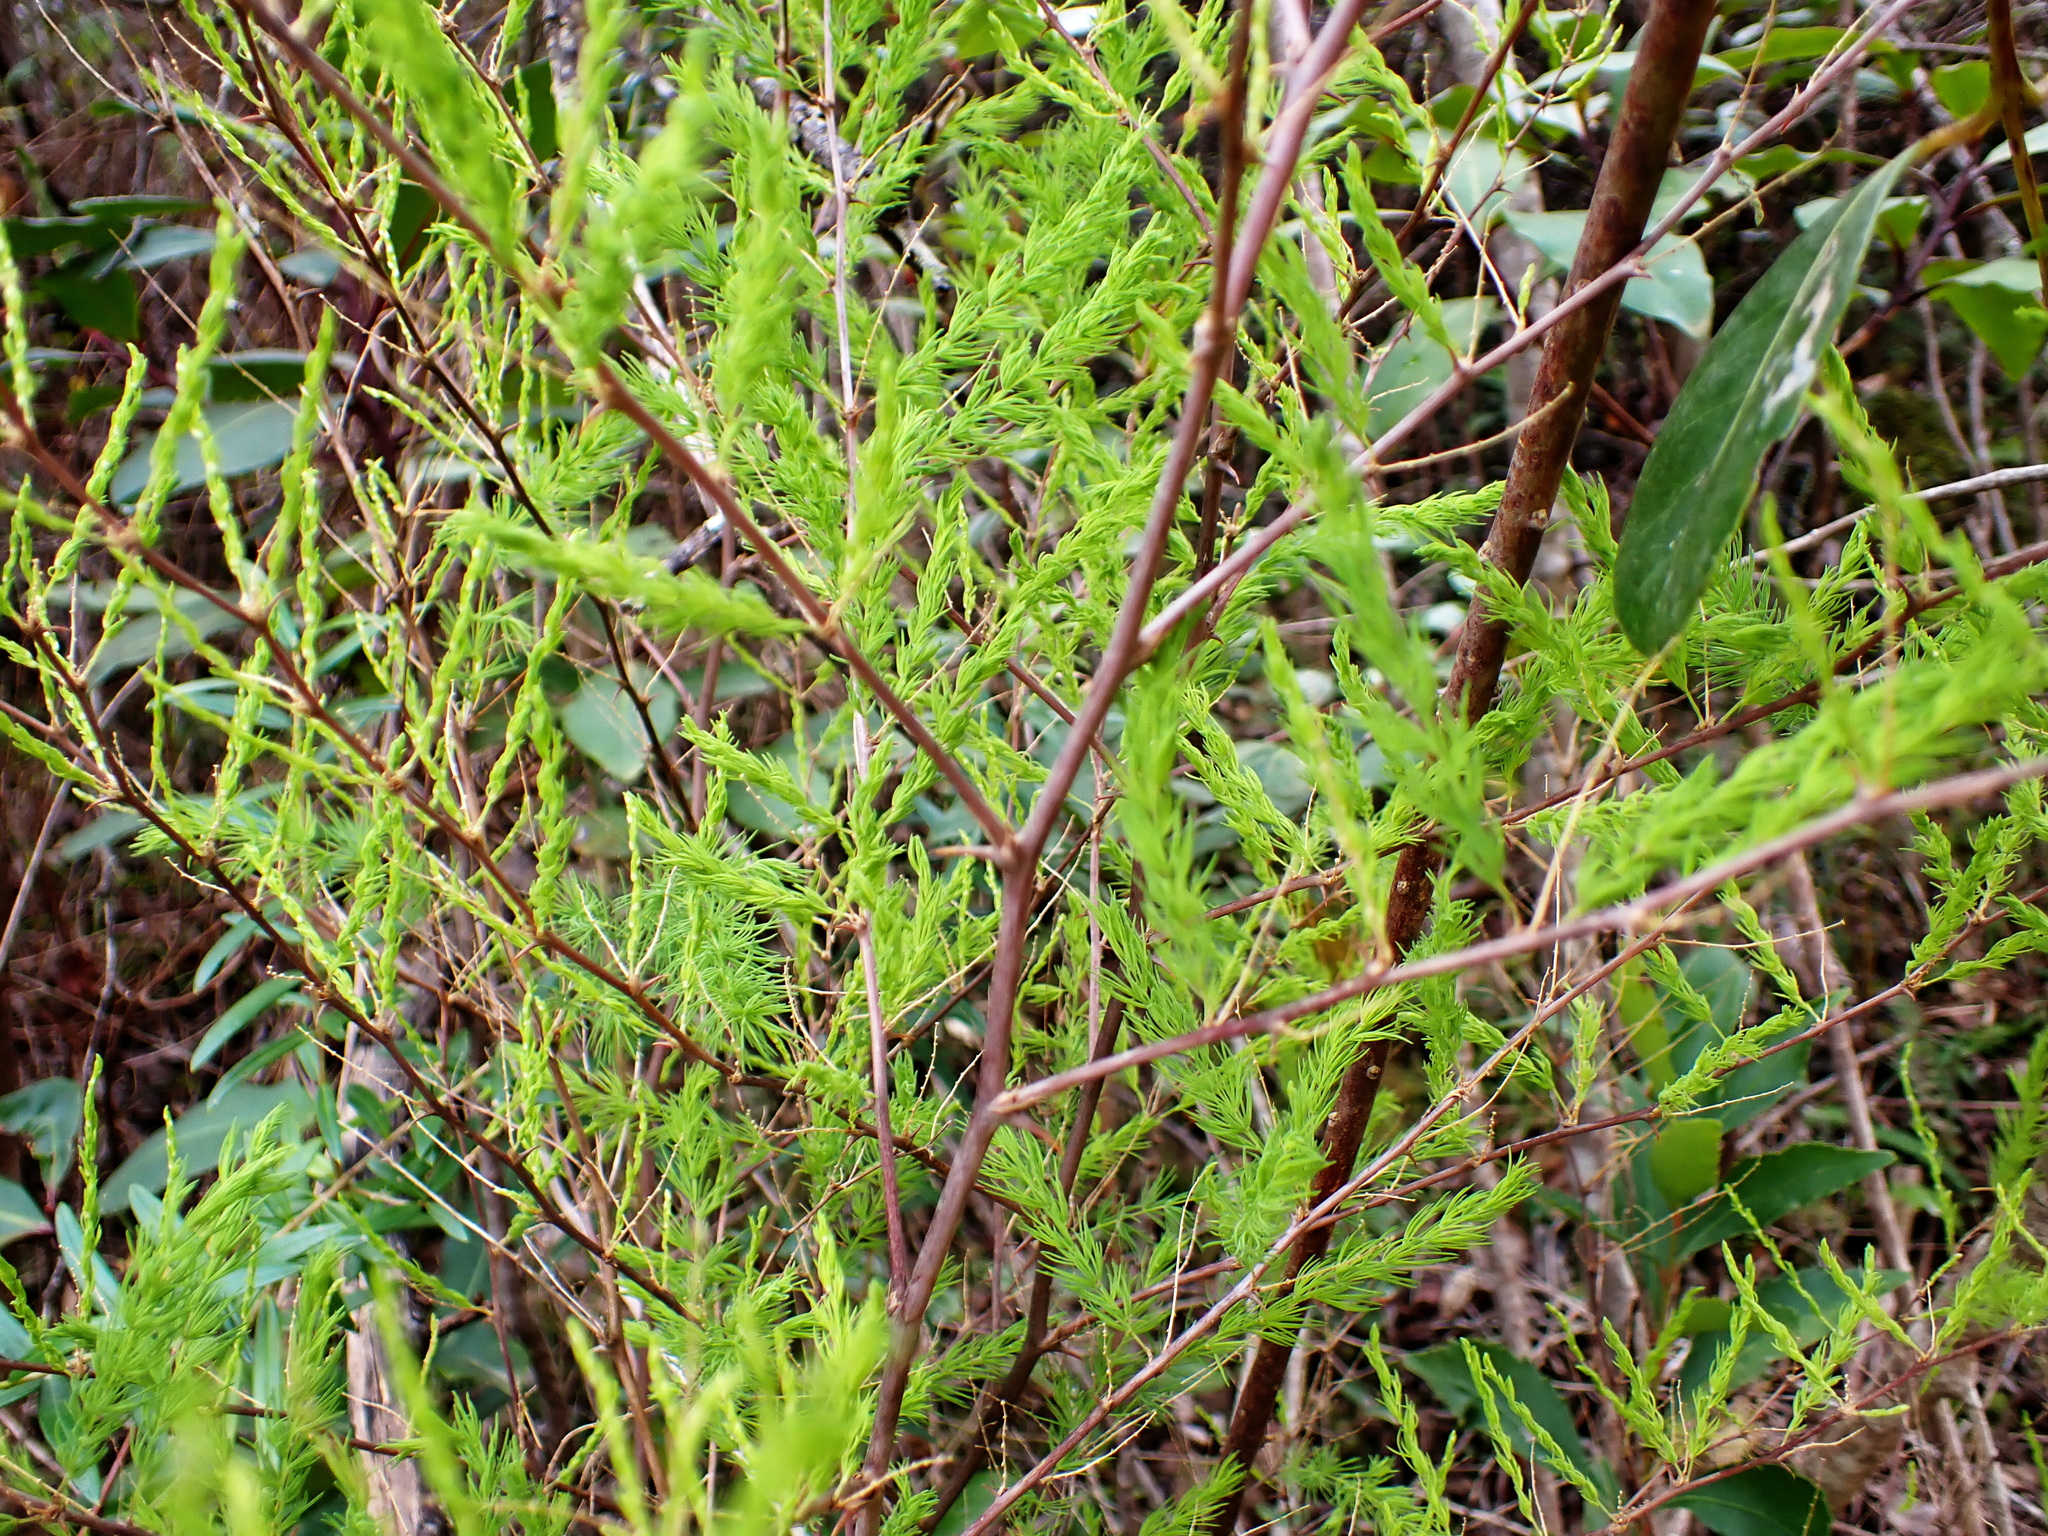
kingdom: Plantae
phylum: Tracheophyta
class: Liliopsida
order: Asparagales
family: Asparagaceae
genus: Asparagus
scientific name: Asparagus rubicundus
